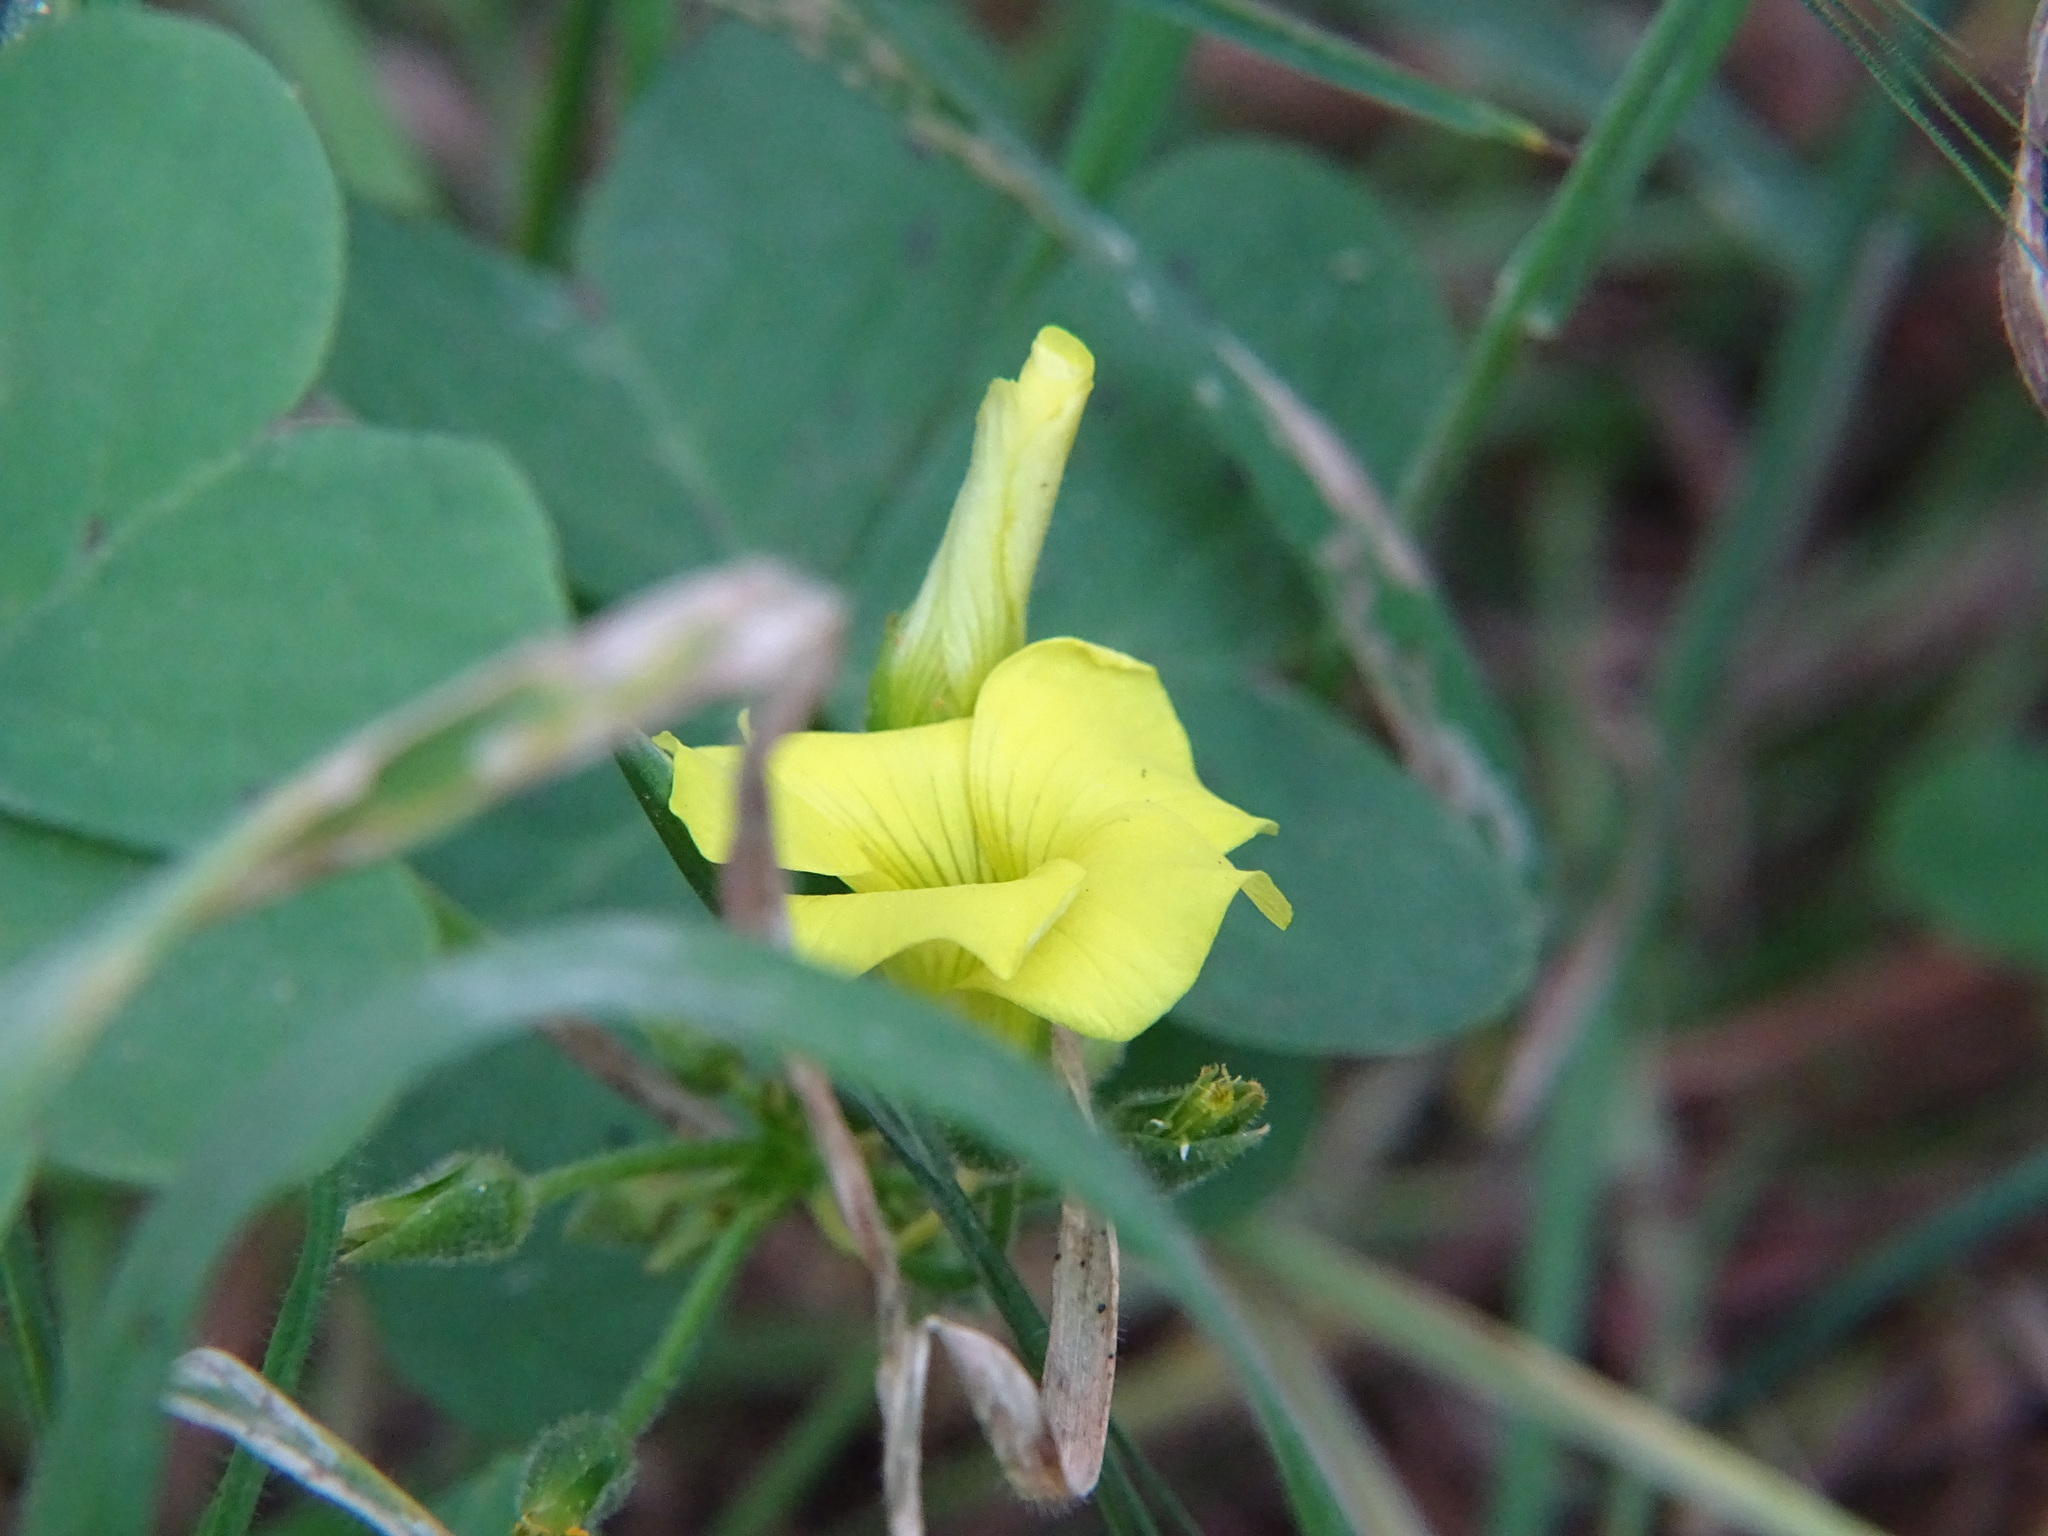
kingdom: Plantae
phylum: Tracheophyta
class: Magnoliopsida
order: Oxalidales
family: Oxalidaceae
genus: Oxalis
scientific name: Oxalis pes-caprae
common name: Bermuda-buttercup
